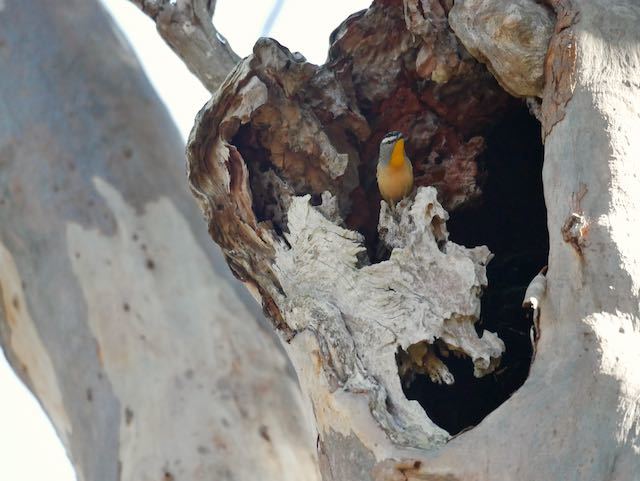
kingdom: Animalia
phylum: Chordata
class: Aves
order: Passeriformes
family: Pardalotidae
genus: Pardalotus
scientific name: Pardalotus punctatus
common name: Spotted pardalote
